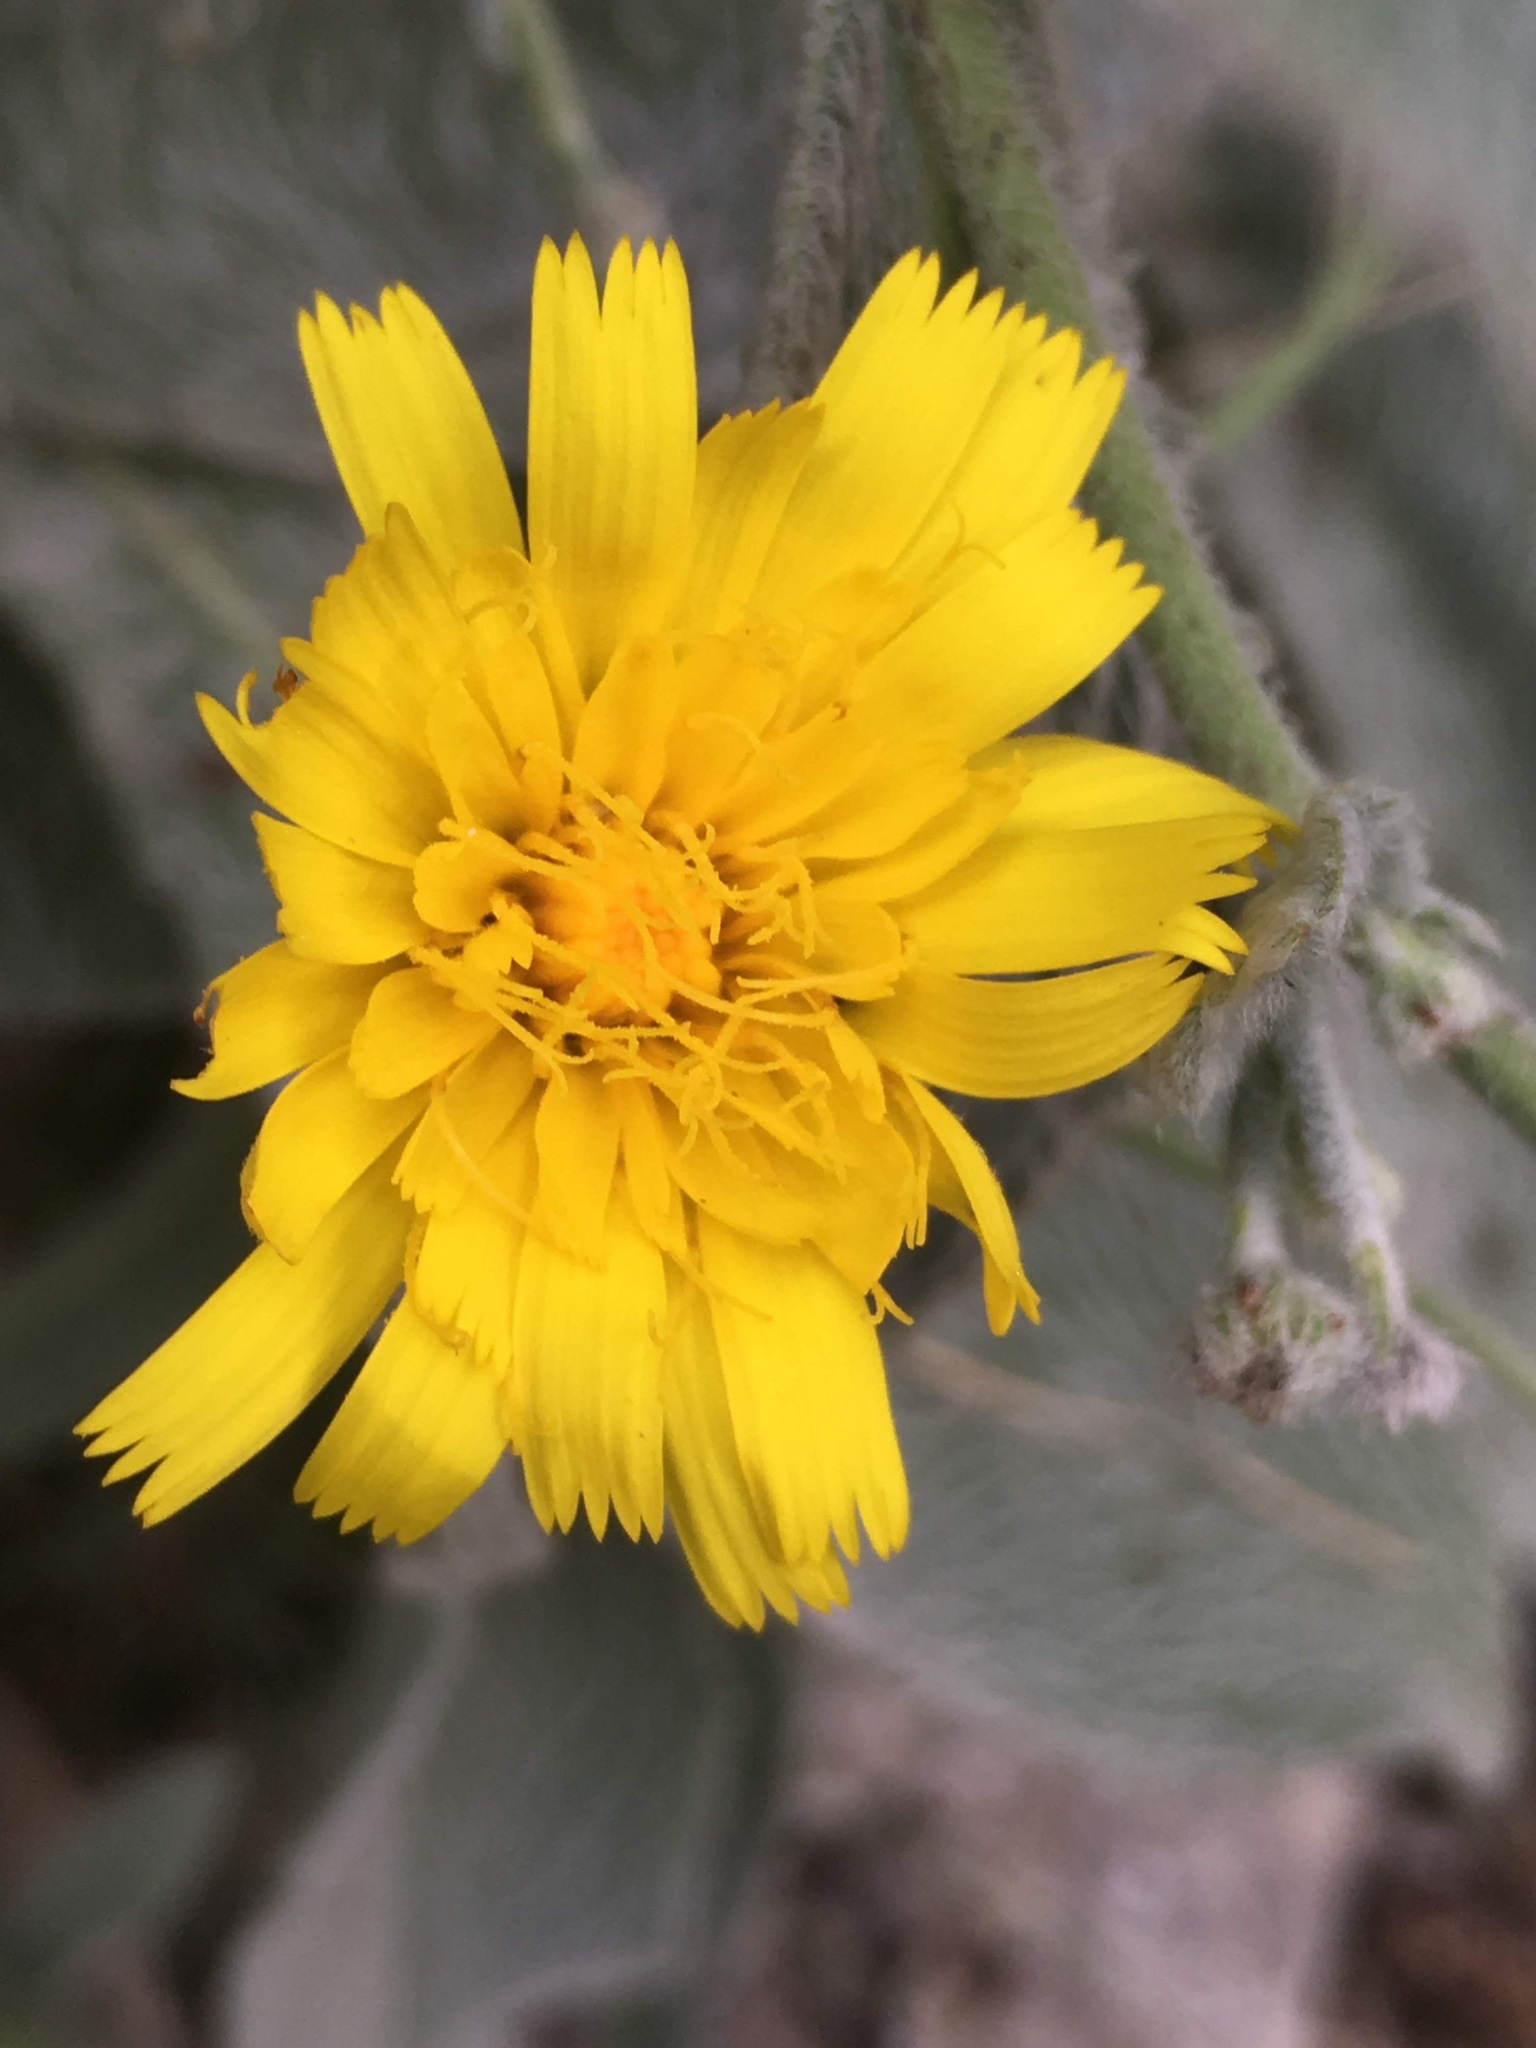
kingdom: Plantae
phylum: Tracheophyta
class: Magnoliopsida
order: Asterales
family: Asteraceae
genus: Hieracium
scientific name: Hieracium villosum
